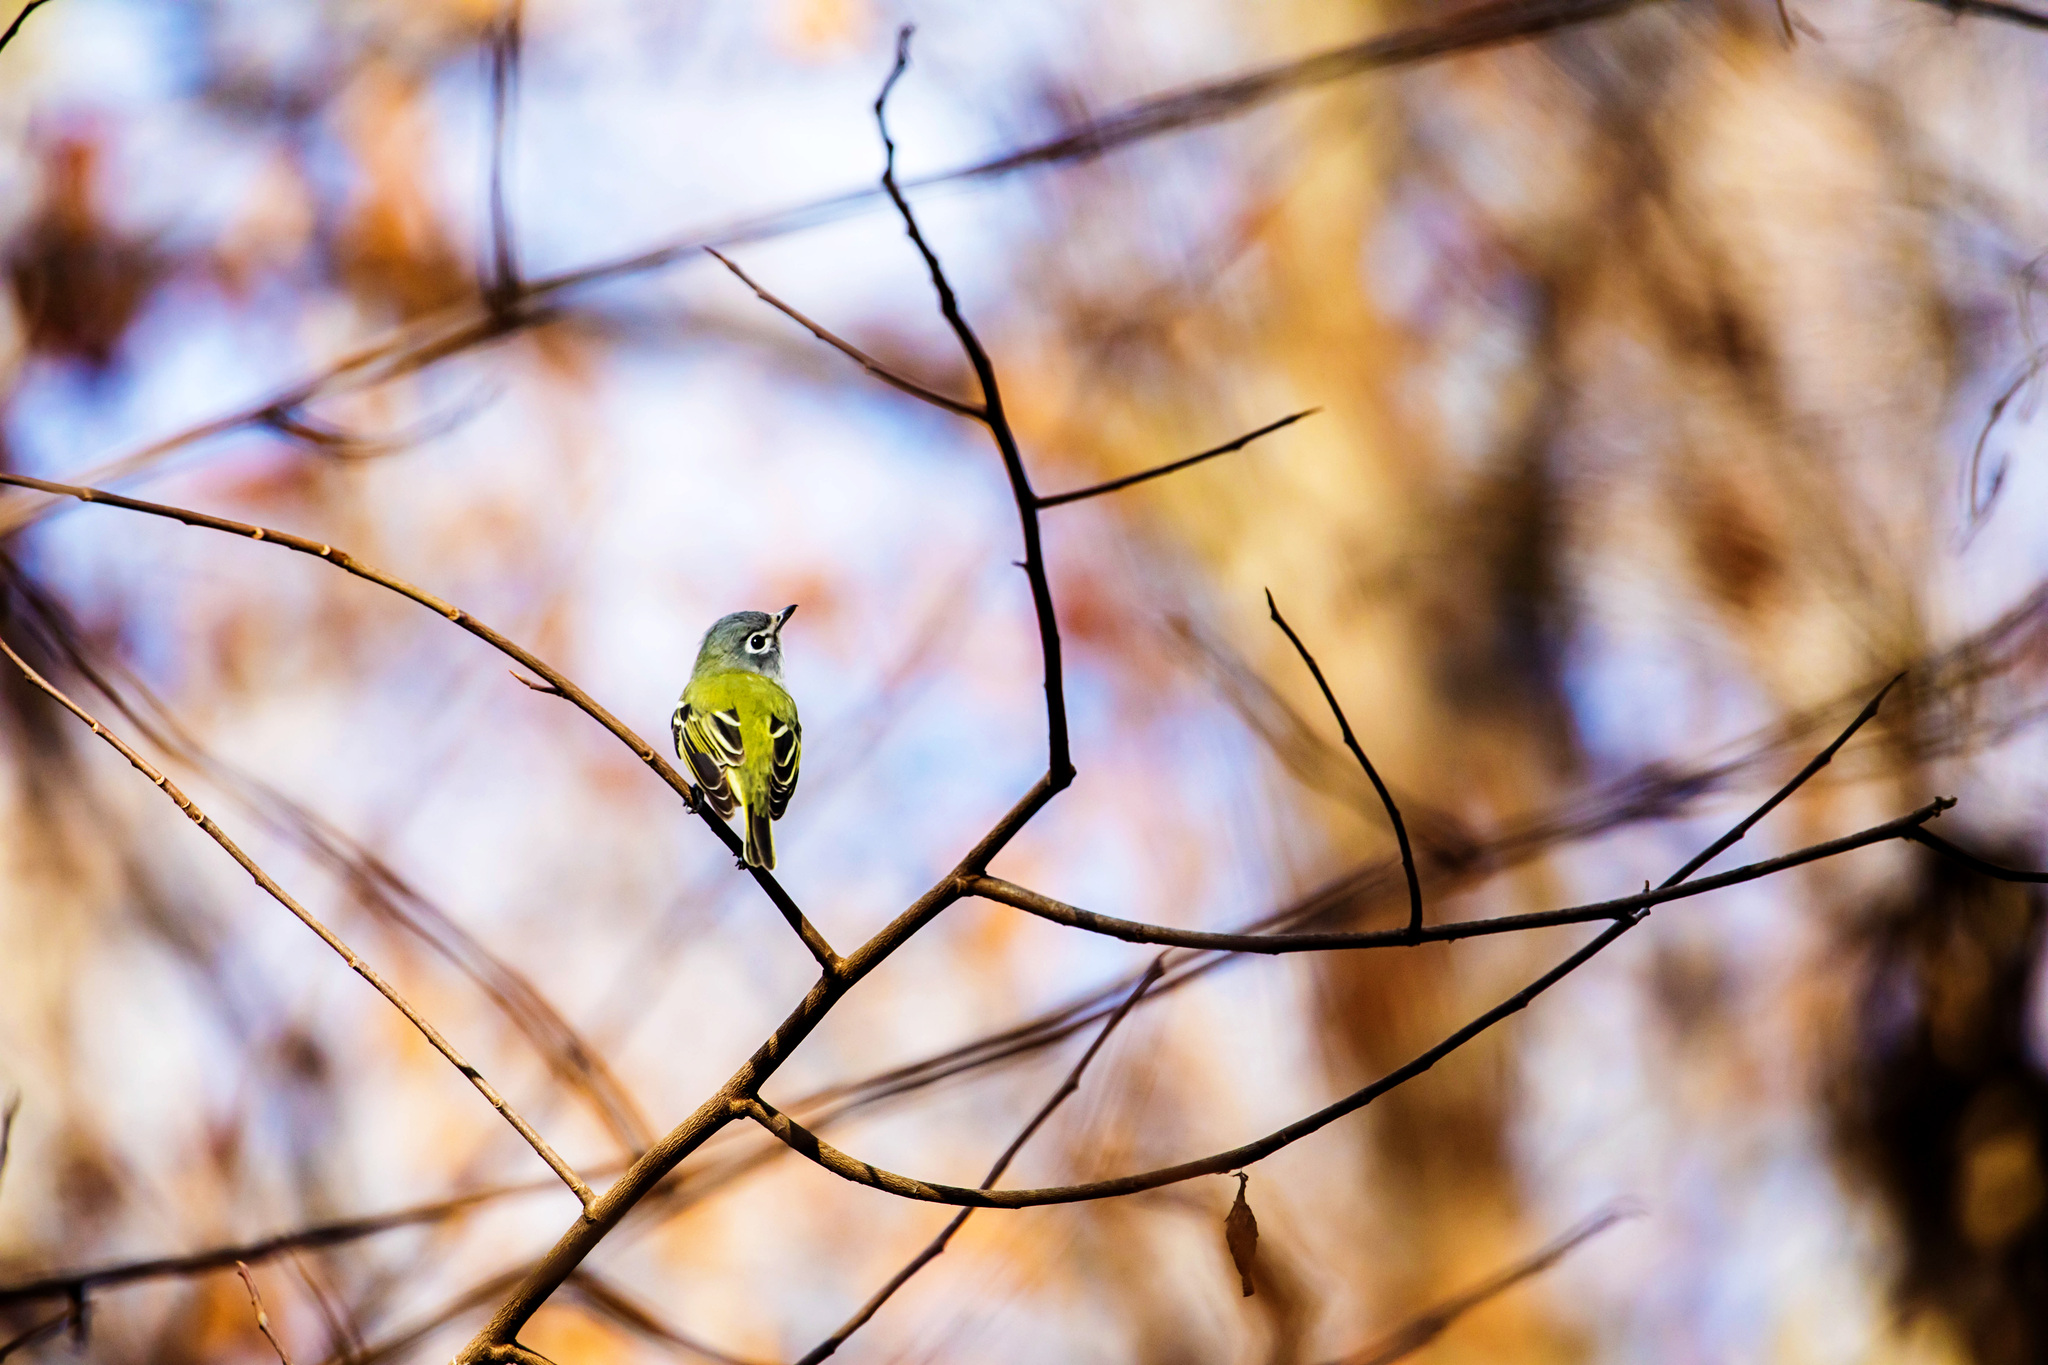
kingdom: Animalia
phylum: Chordata
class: Aves
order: Passeriformes
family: Vireonidae
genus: Vireo
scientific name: Vireo solitarius
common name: Blue-headed vireo
